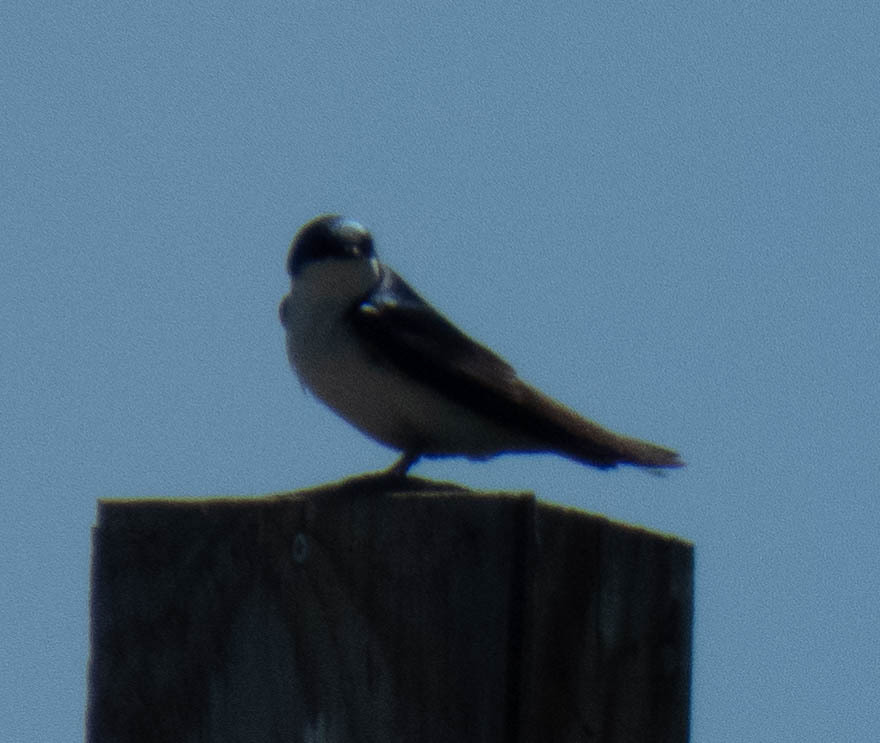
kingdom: Animalia
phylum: Chordata
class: Aves
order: Passeriformes
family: Hirundinidae
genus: Tachycineta
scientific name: Tachycineta bicolor
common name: Tree swallow
